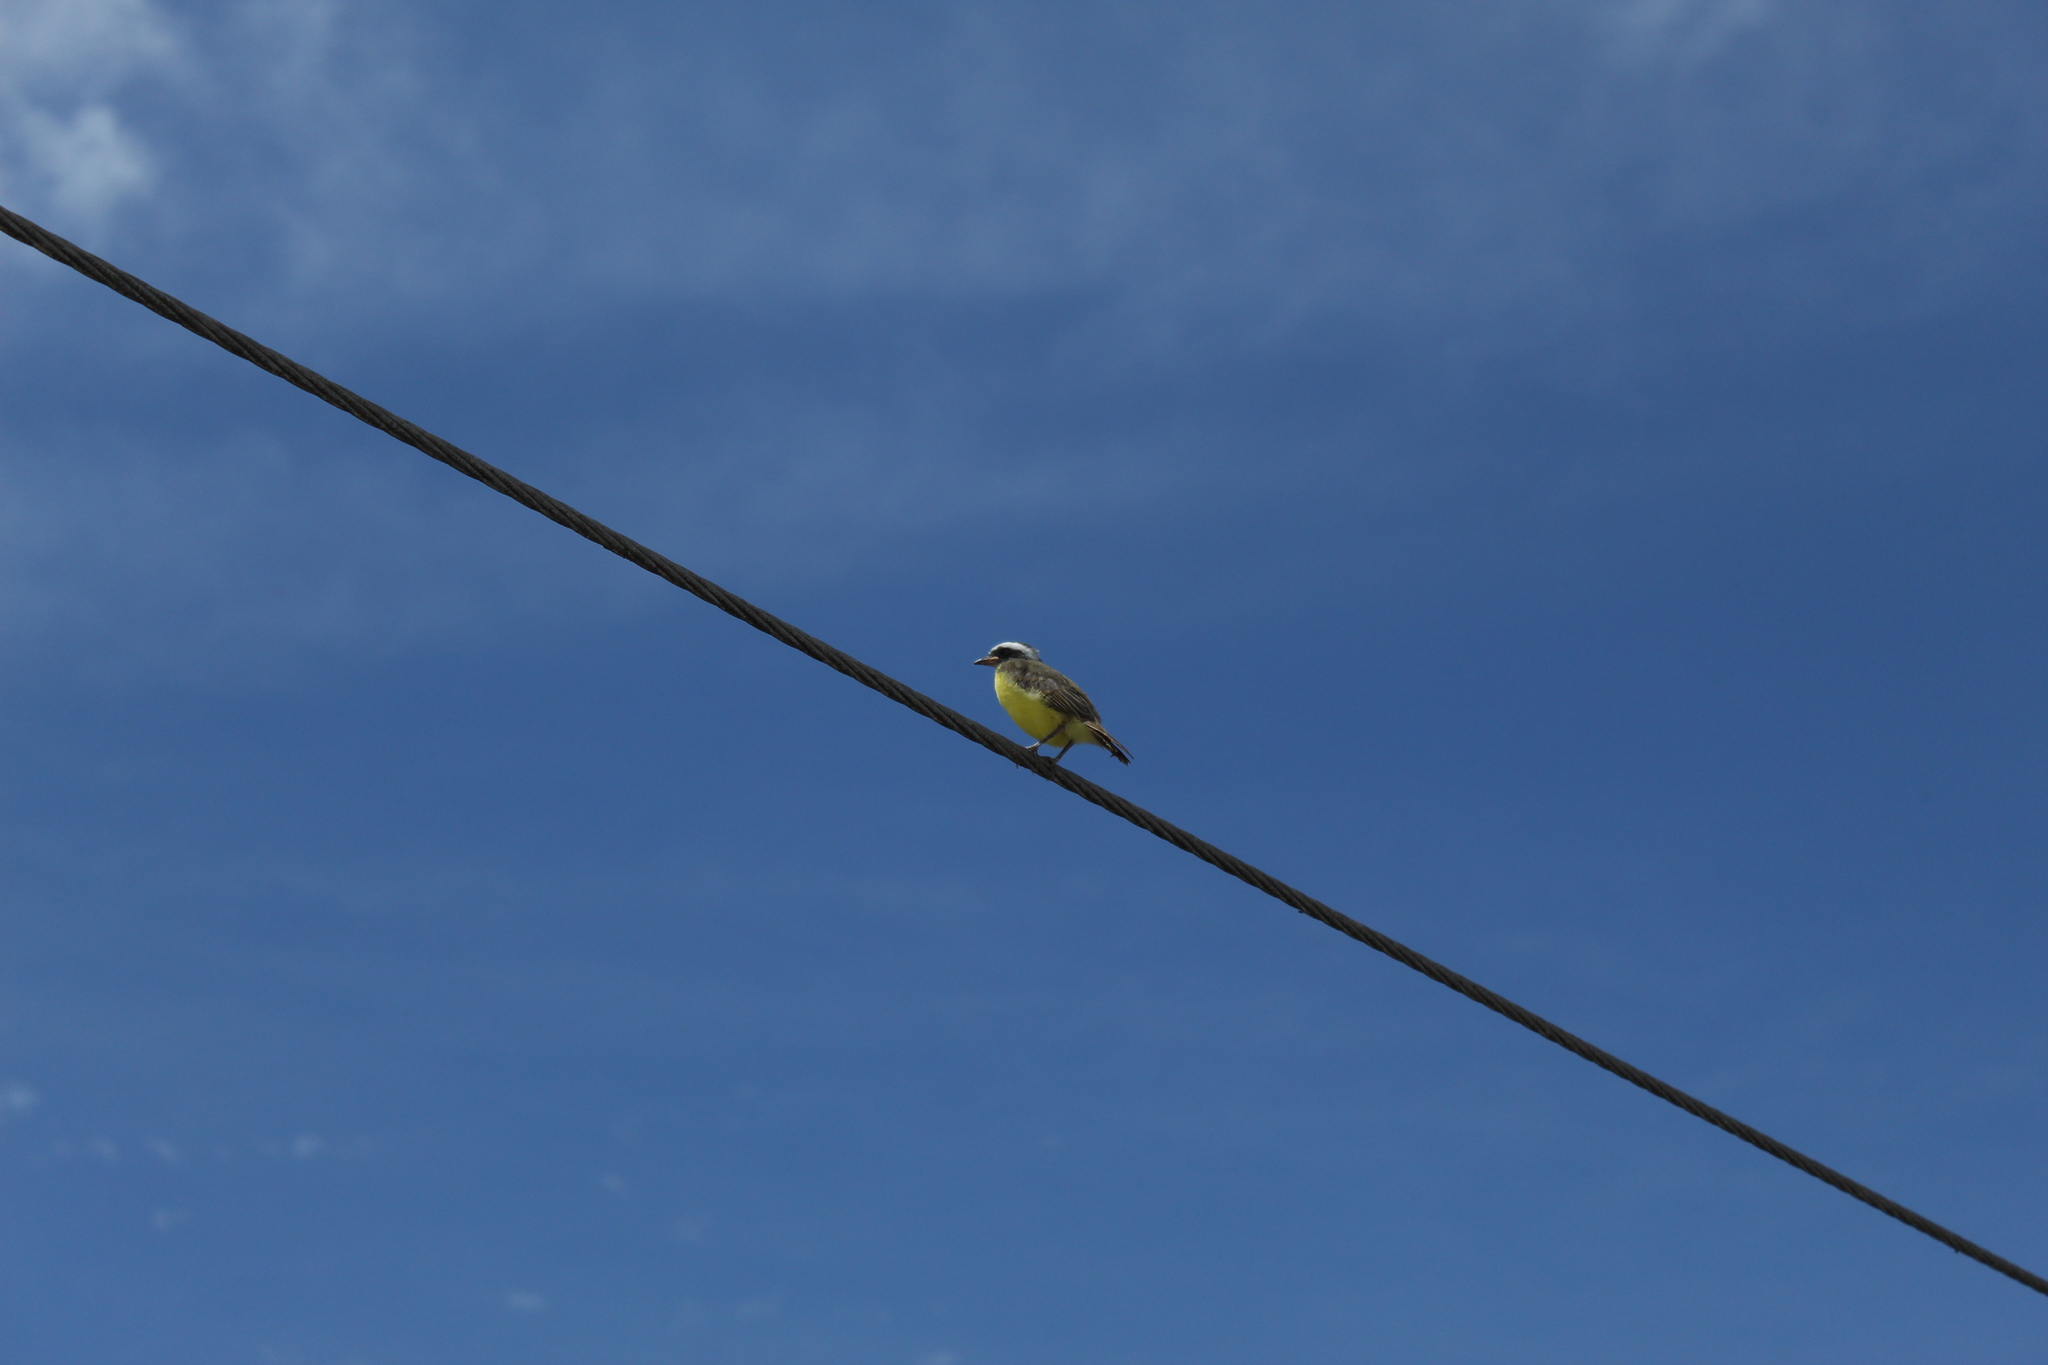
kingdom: Animalia
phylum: Chordata
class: Aves
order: Passeriformes
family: Tyrannidae
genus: Myiozetetes
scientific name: Myiozetetes similis
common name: Social flycatcher
